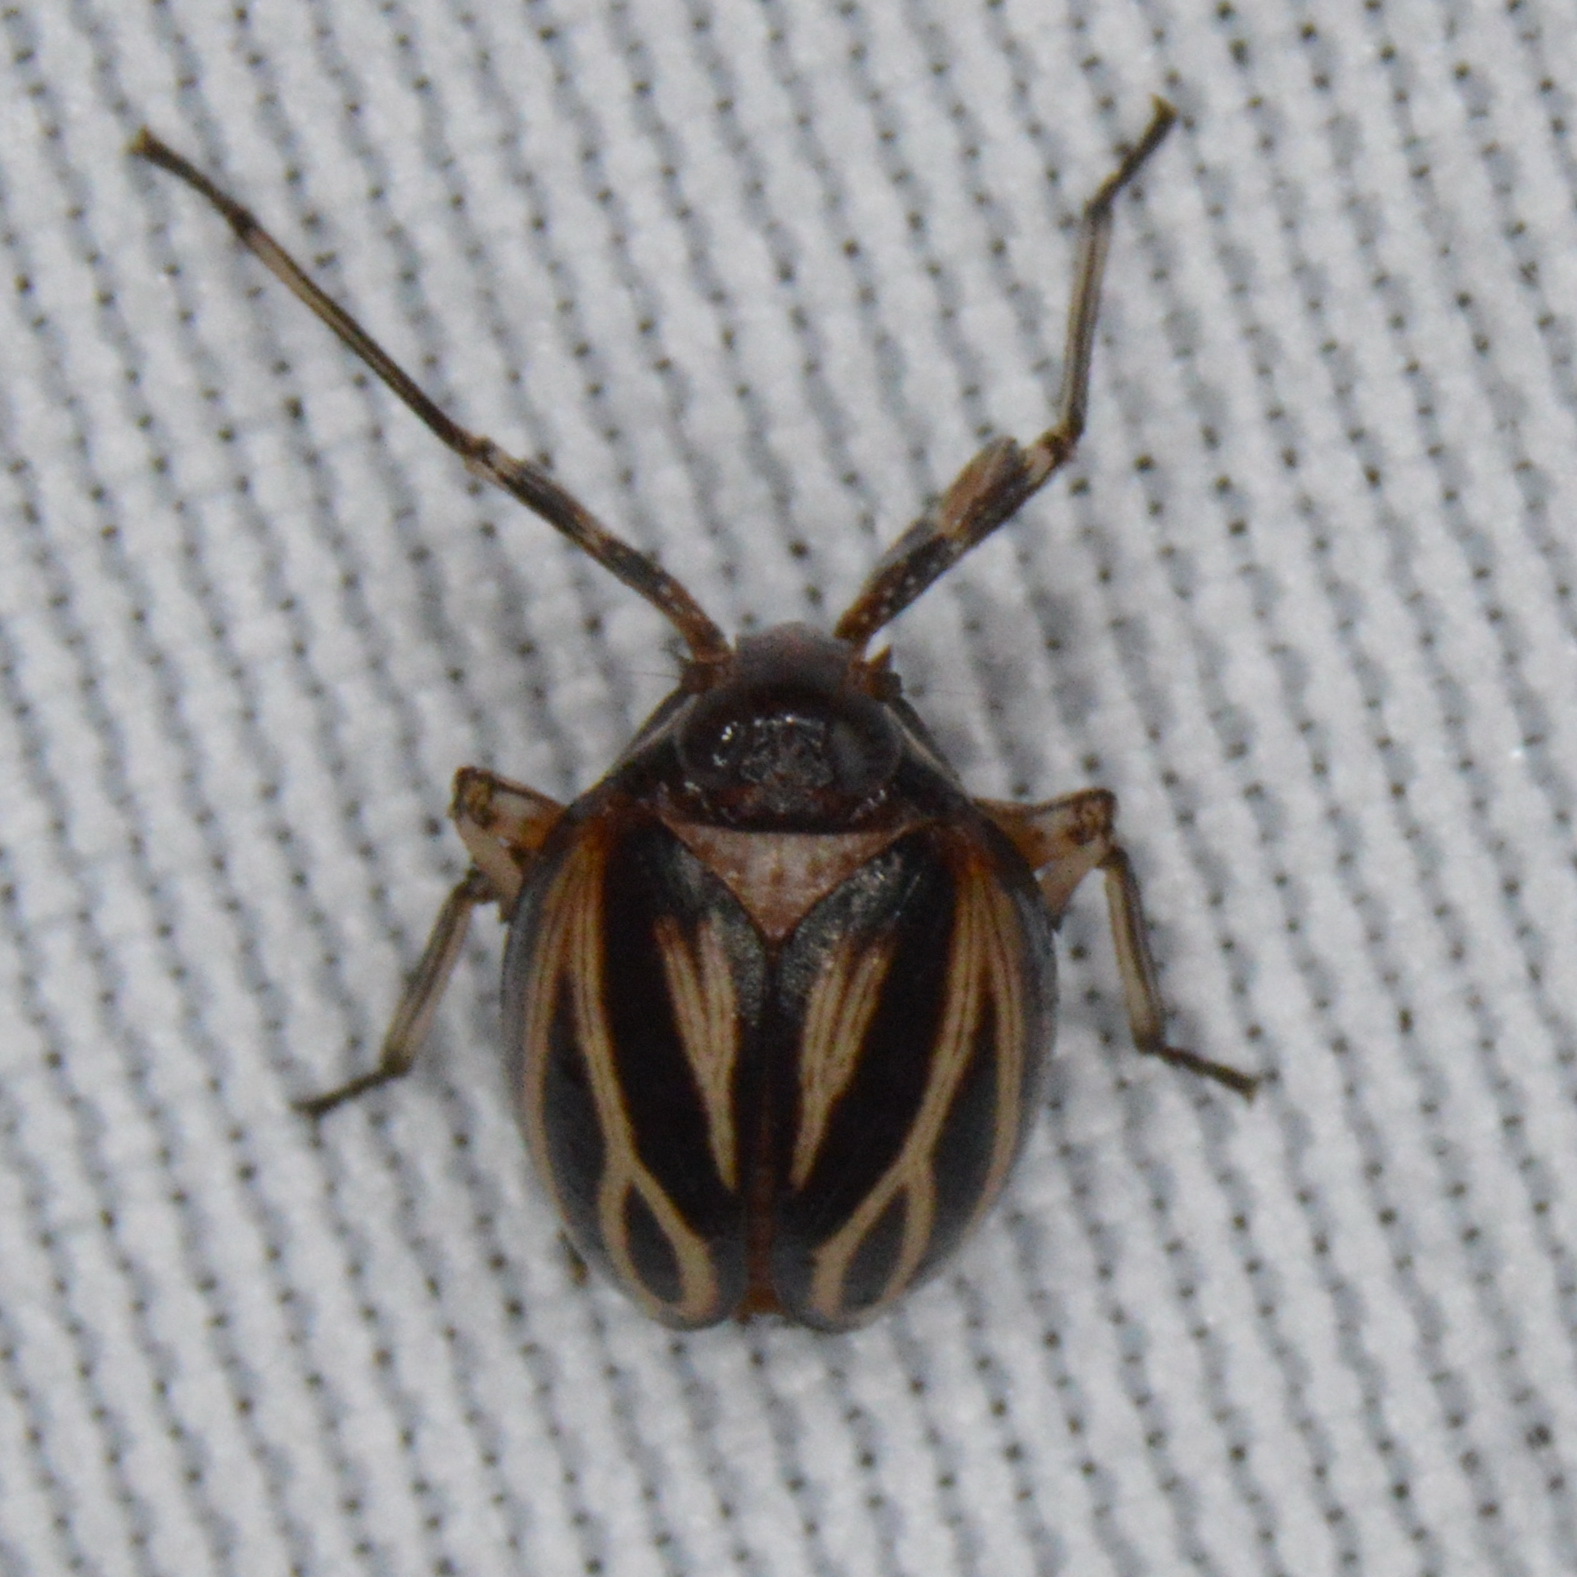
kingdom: Animalia
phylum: Arthropoda
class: Insecta
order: Hemiptera
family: Achilidae
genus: Isodaemon
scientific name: Isodaemon orontes
